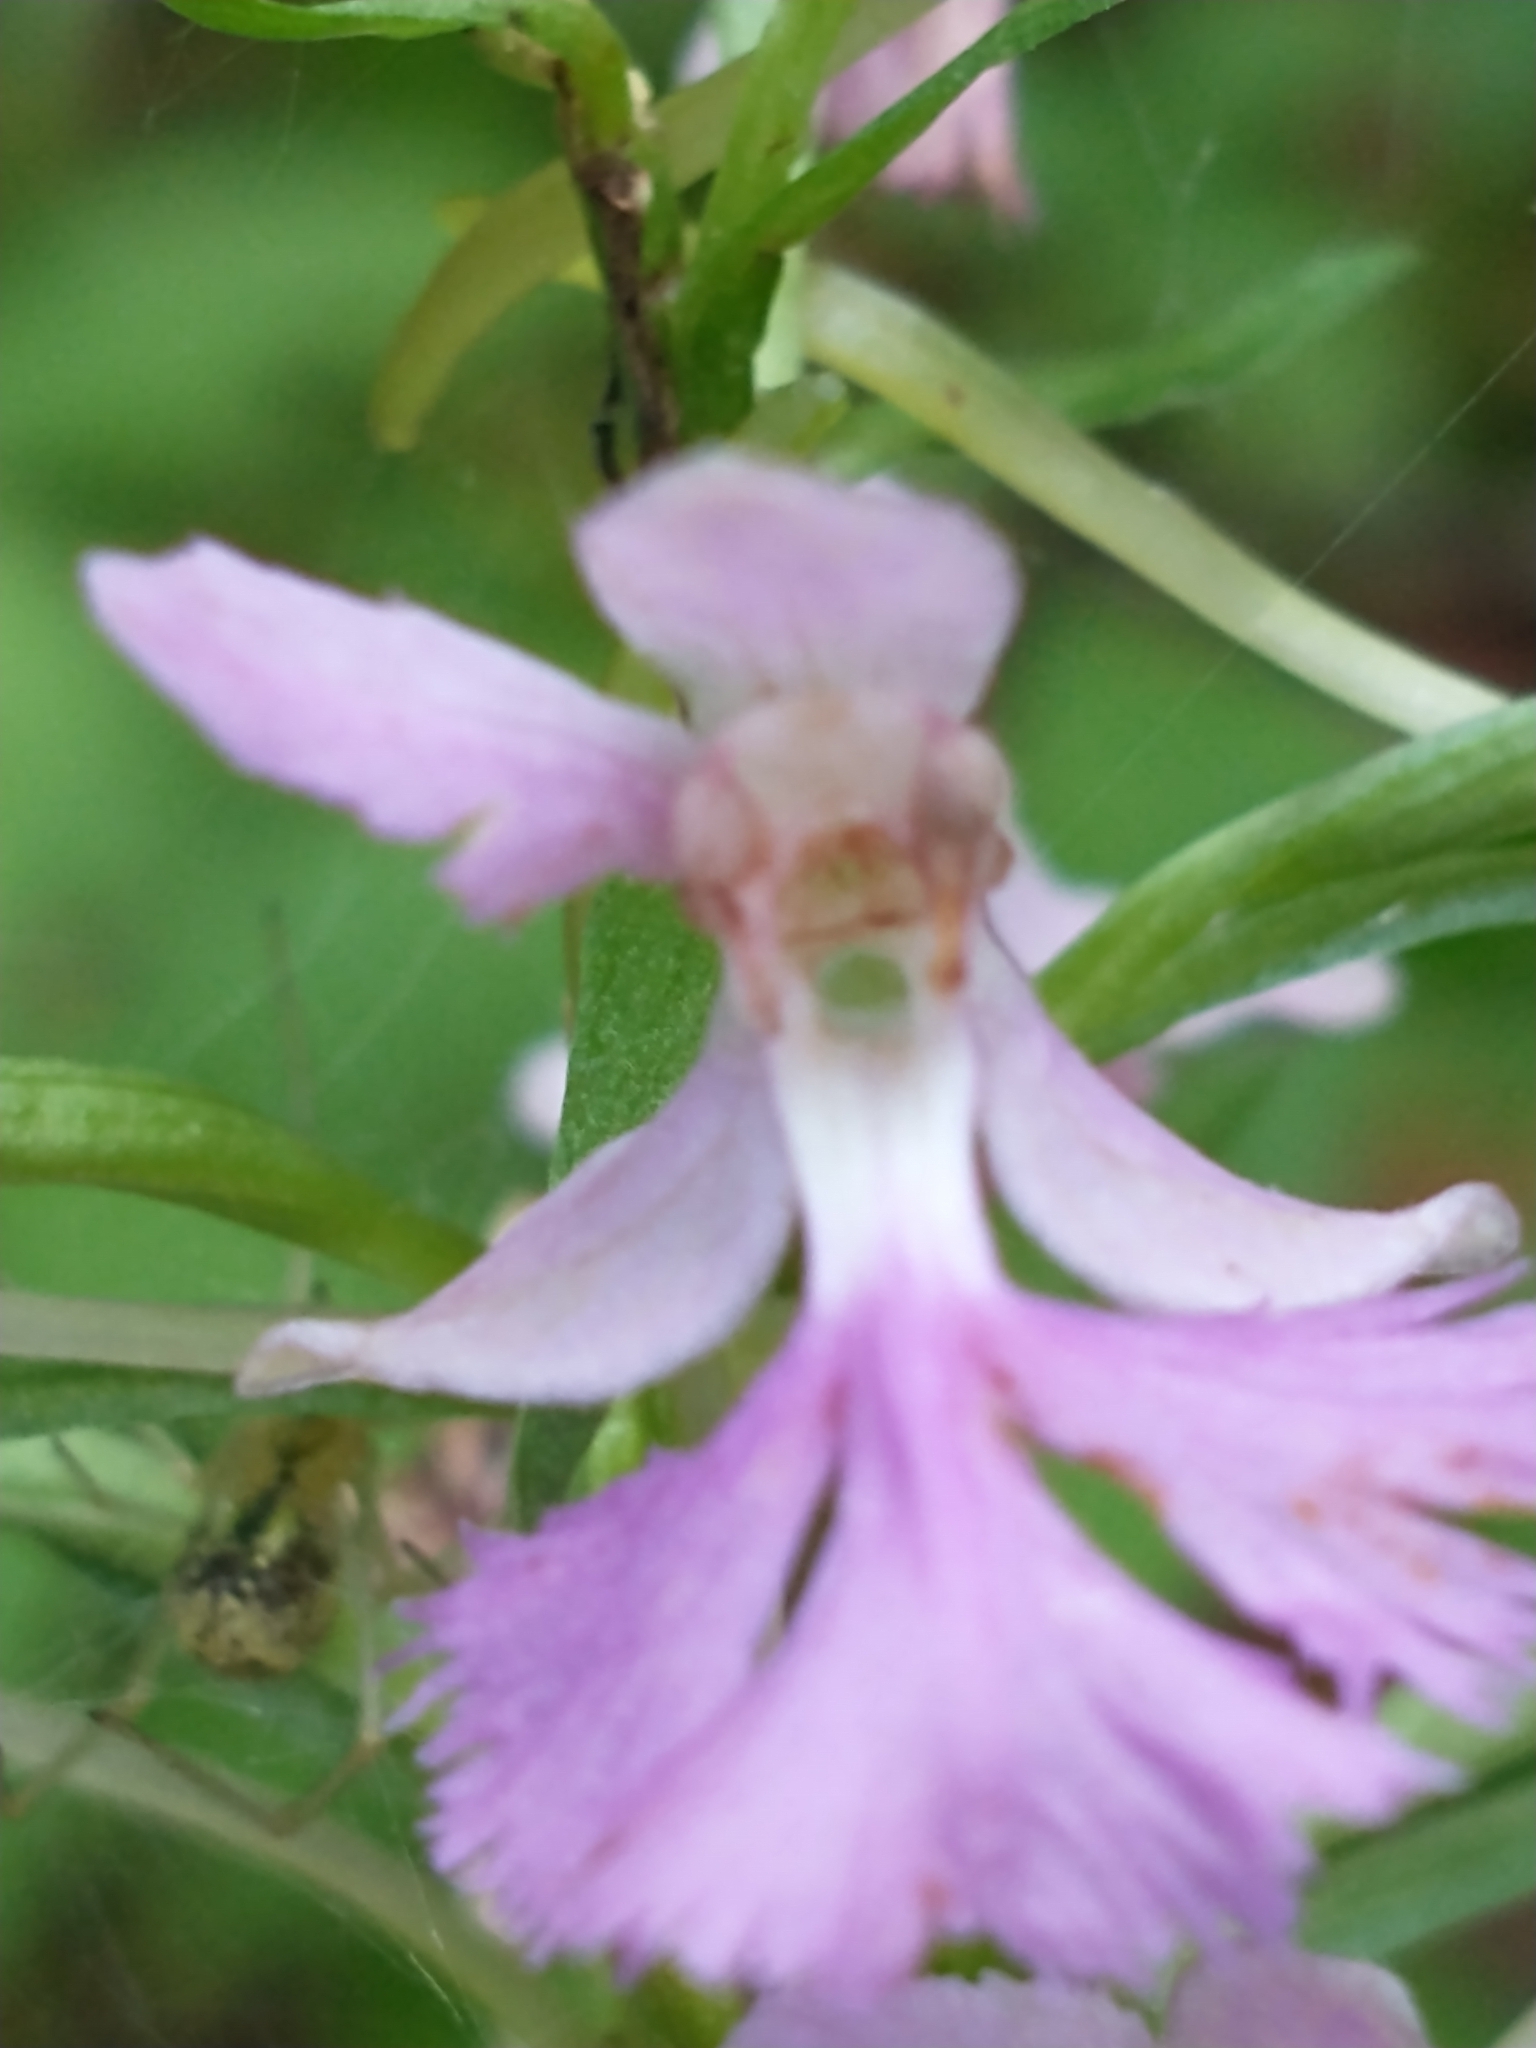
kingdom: Plantae
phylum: Tracheophyta
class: Liliopsida
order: Asparagales
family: Orchidaceae
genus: Platanthera
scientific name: Platanthera grandiflora
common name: Greater purple fringed orchid
